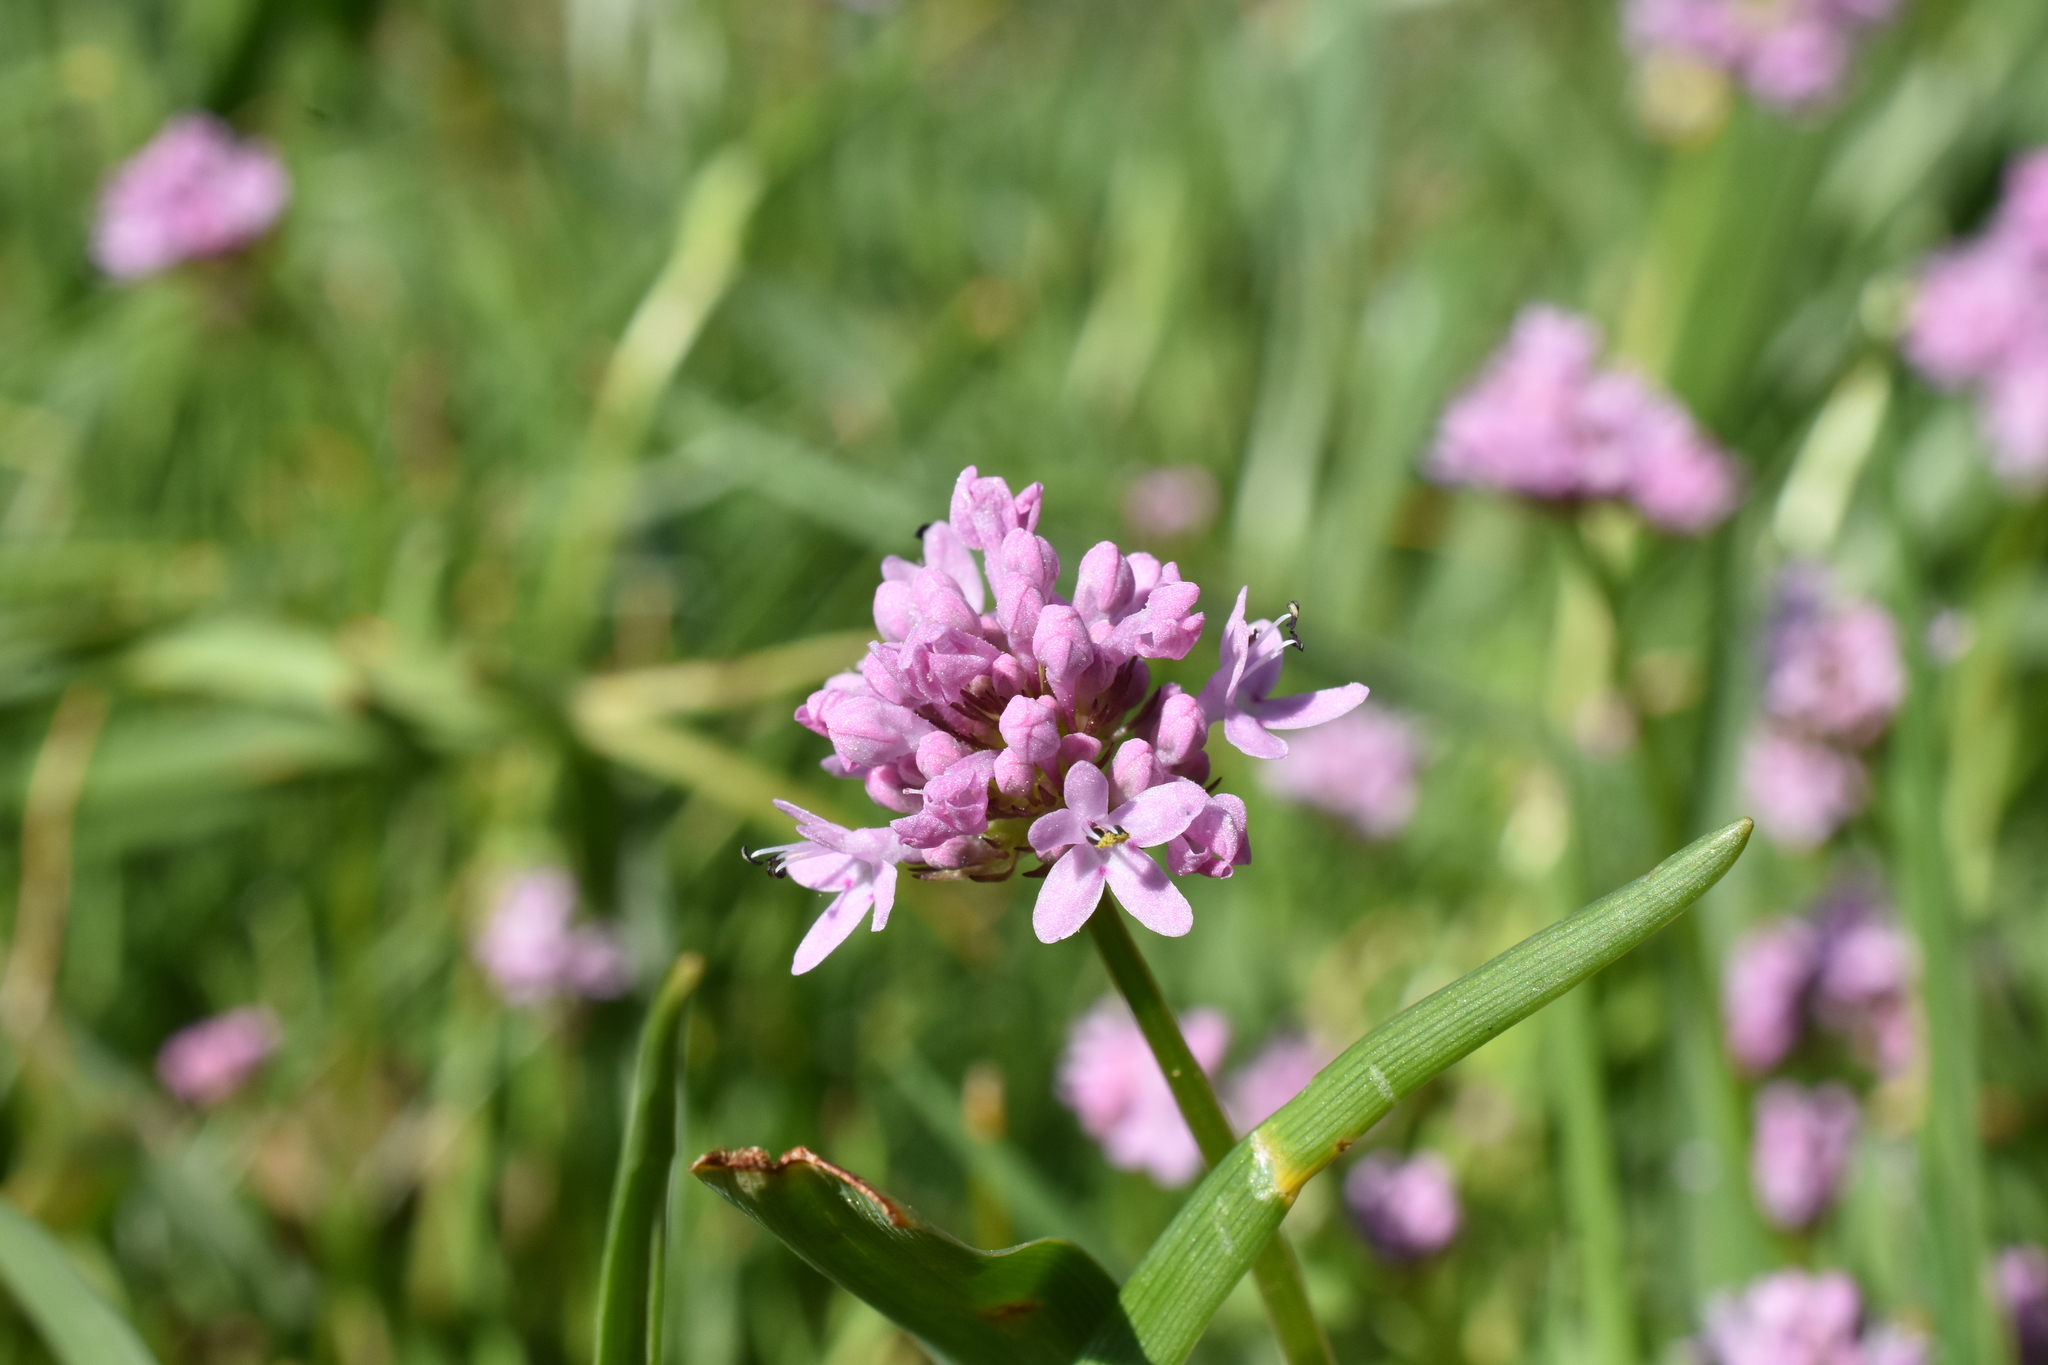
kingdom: Plantae
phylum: Tracheophyta
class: Magnoliopsida
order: Dipsacales
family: Caprifoliaceae
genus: Plectritis
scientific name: Plectritis congesta
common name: Pink plectritis
